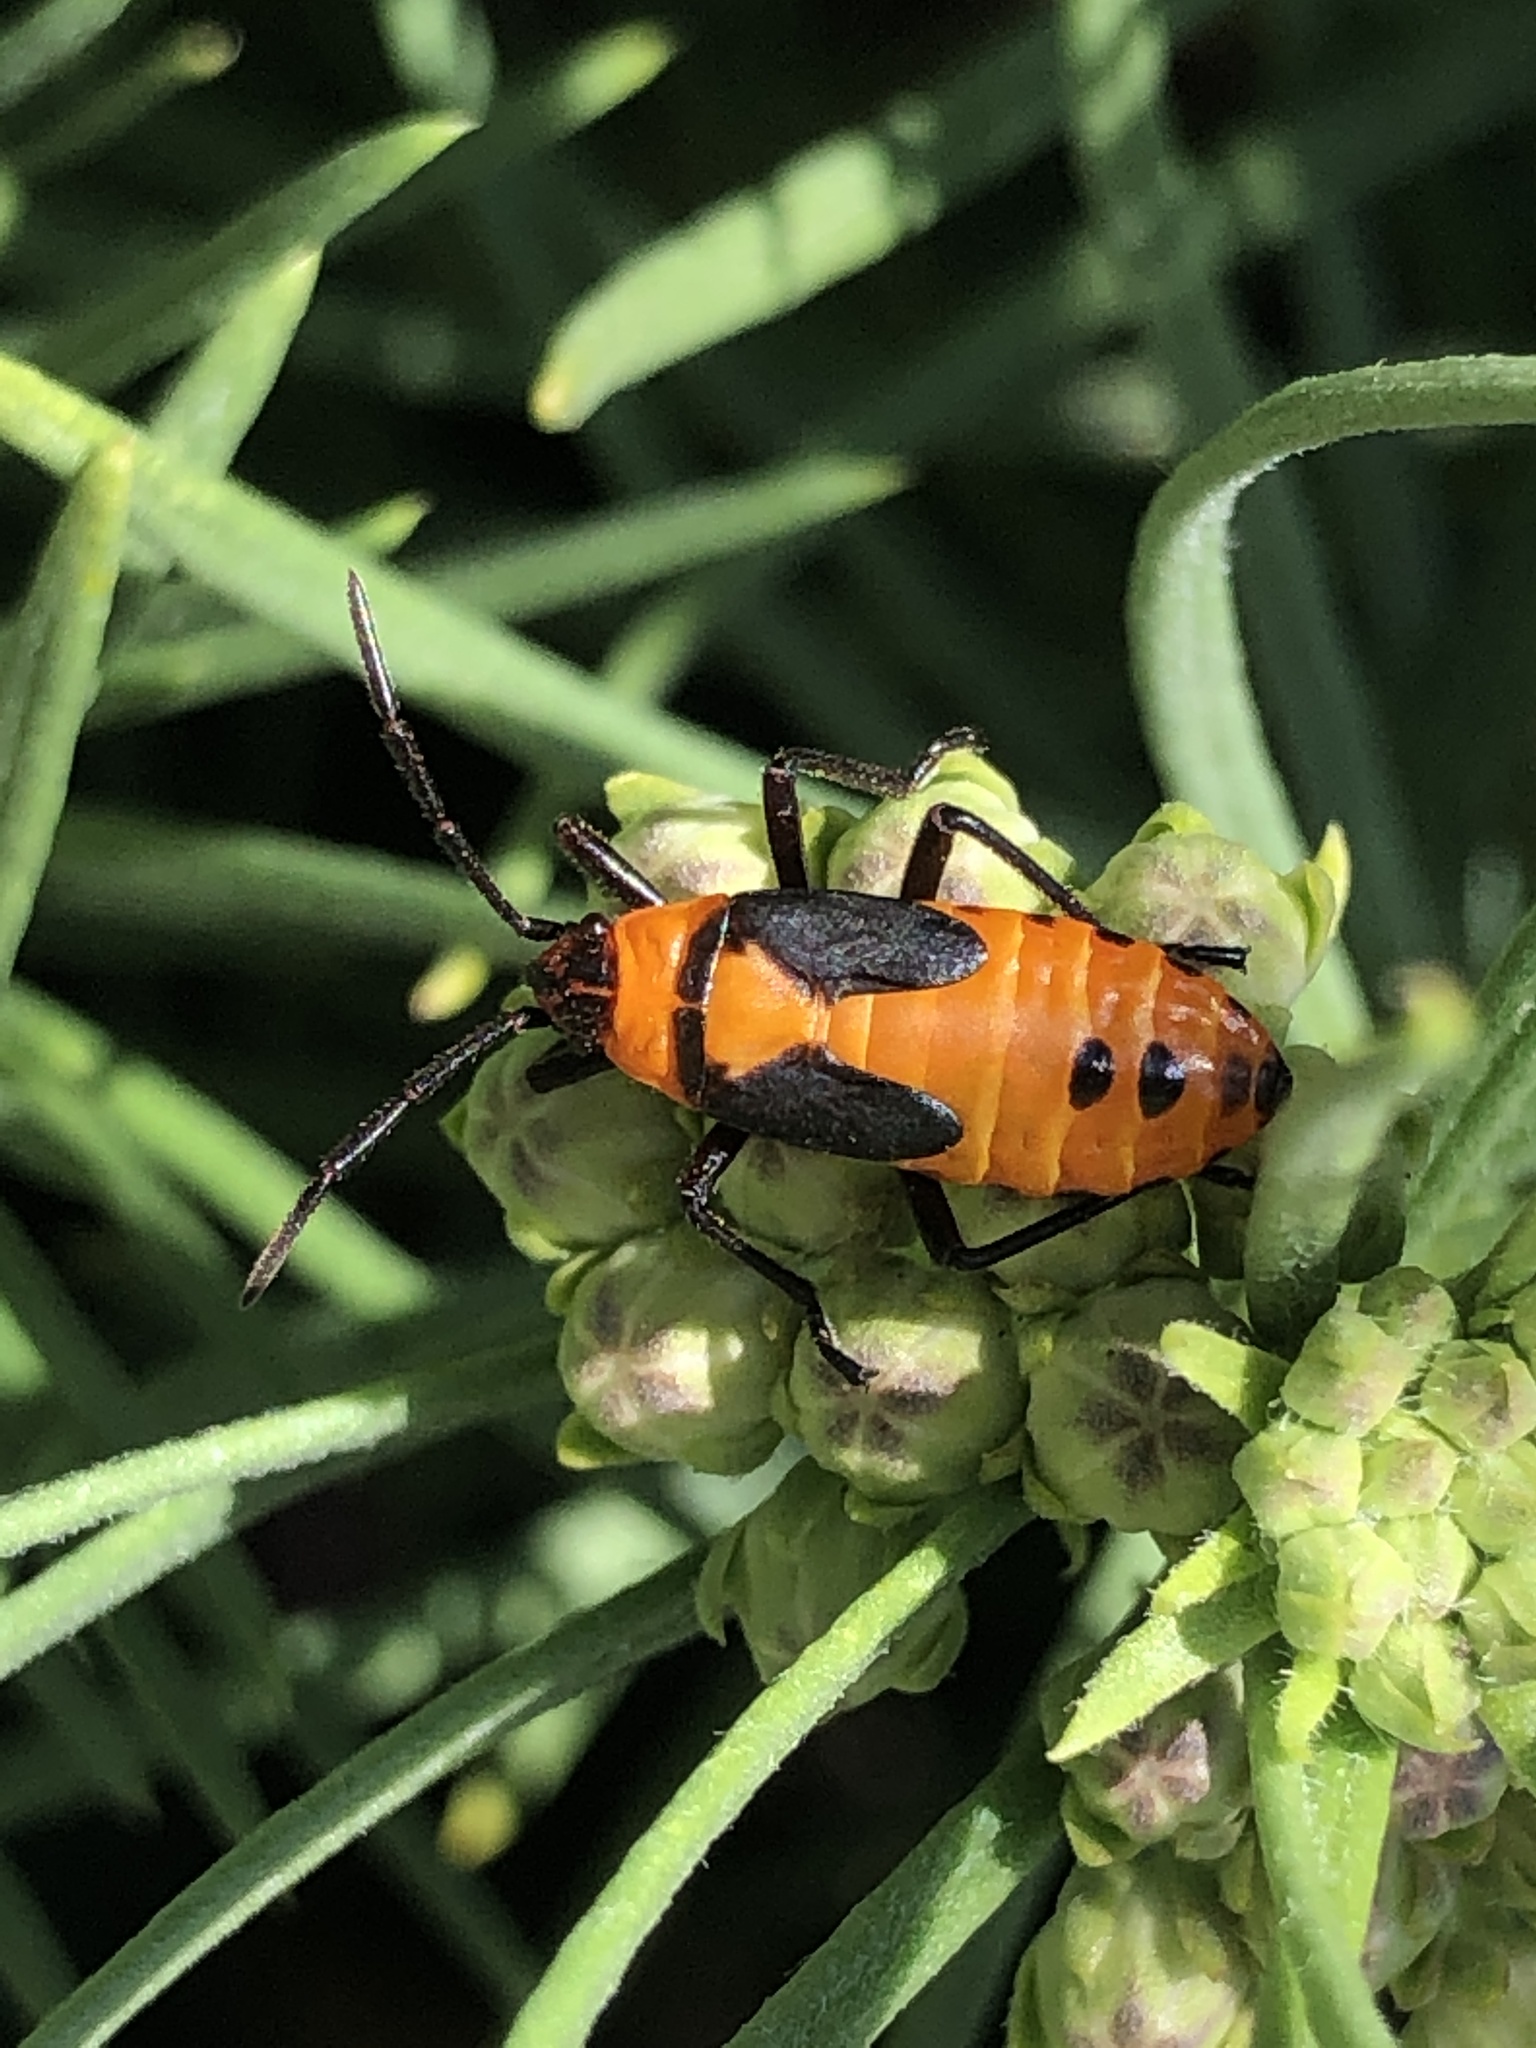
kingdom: Animalia
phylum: Arthropoda
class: Insecta
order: Hemiptera
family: Lygaeidae
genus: Oncopeltus
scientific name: Oncopeltus fasciatus
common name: Large milkweed bug
